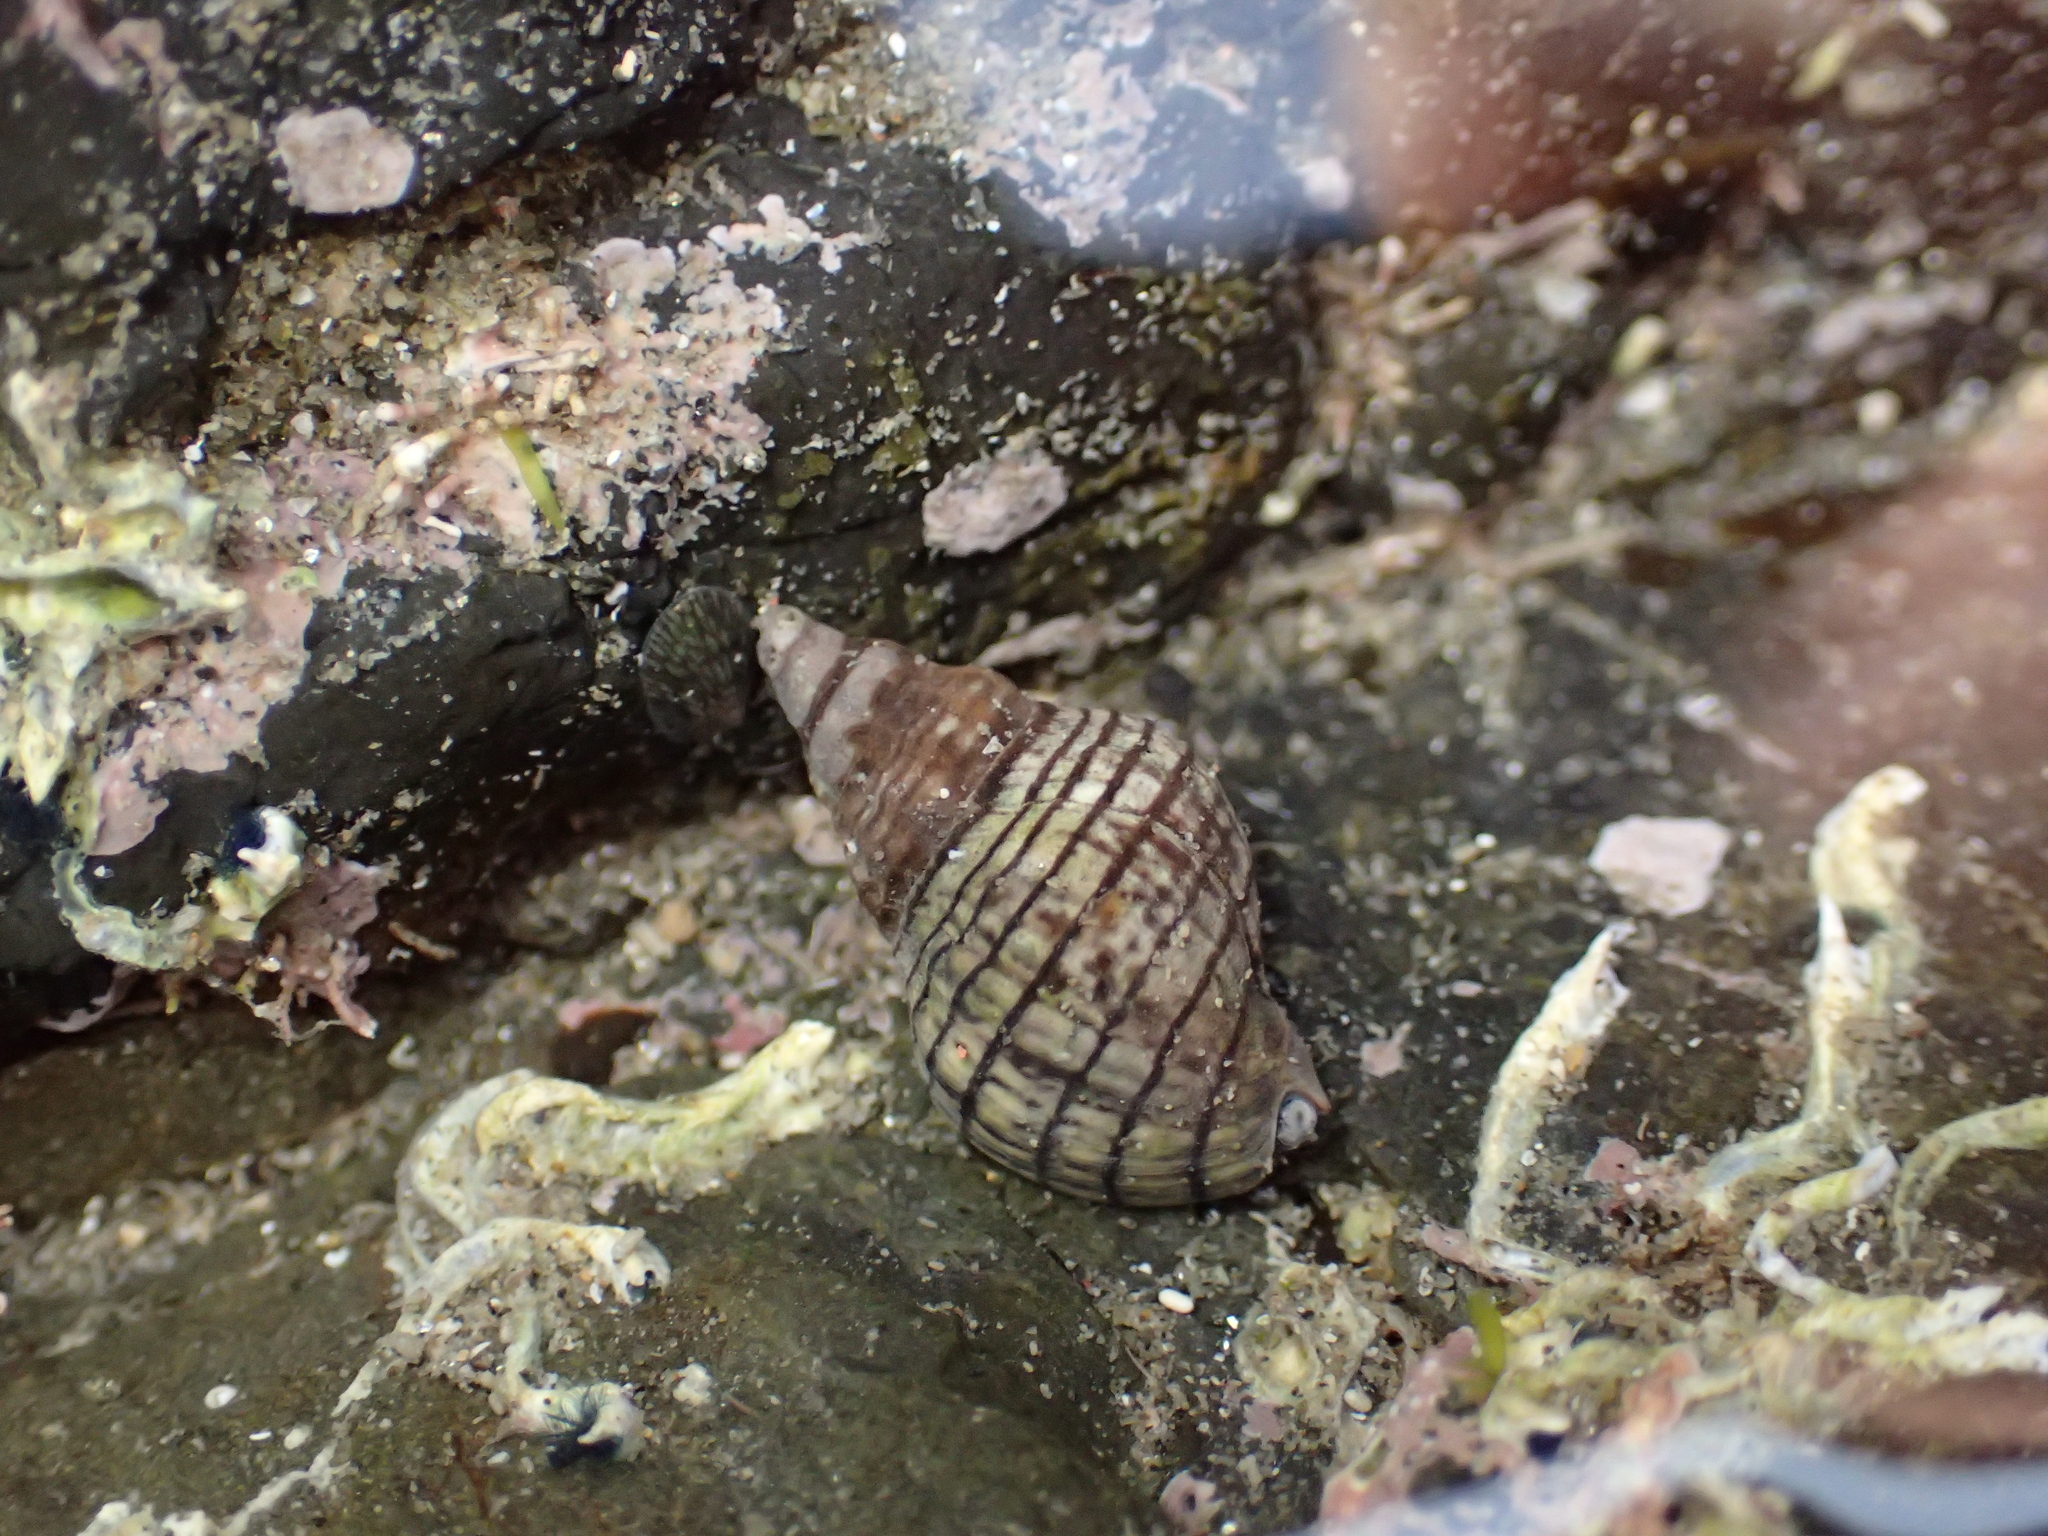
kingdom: Animalia
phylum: Mollusca
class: Gastropoda
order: Neogastropoda
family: Cominellidae
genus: Cominella
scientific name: Cominella virgata
